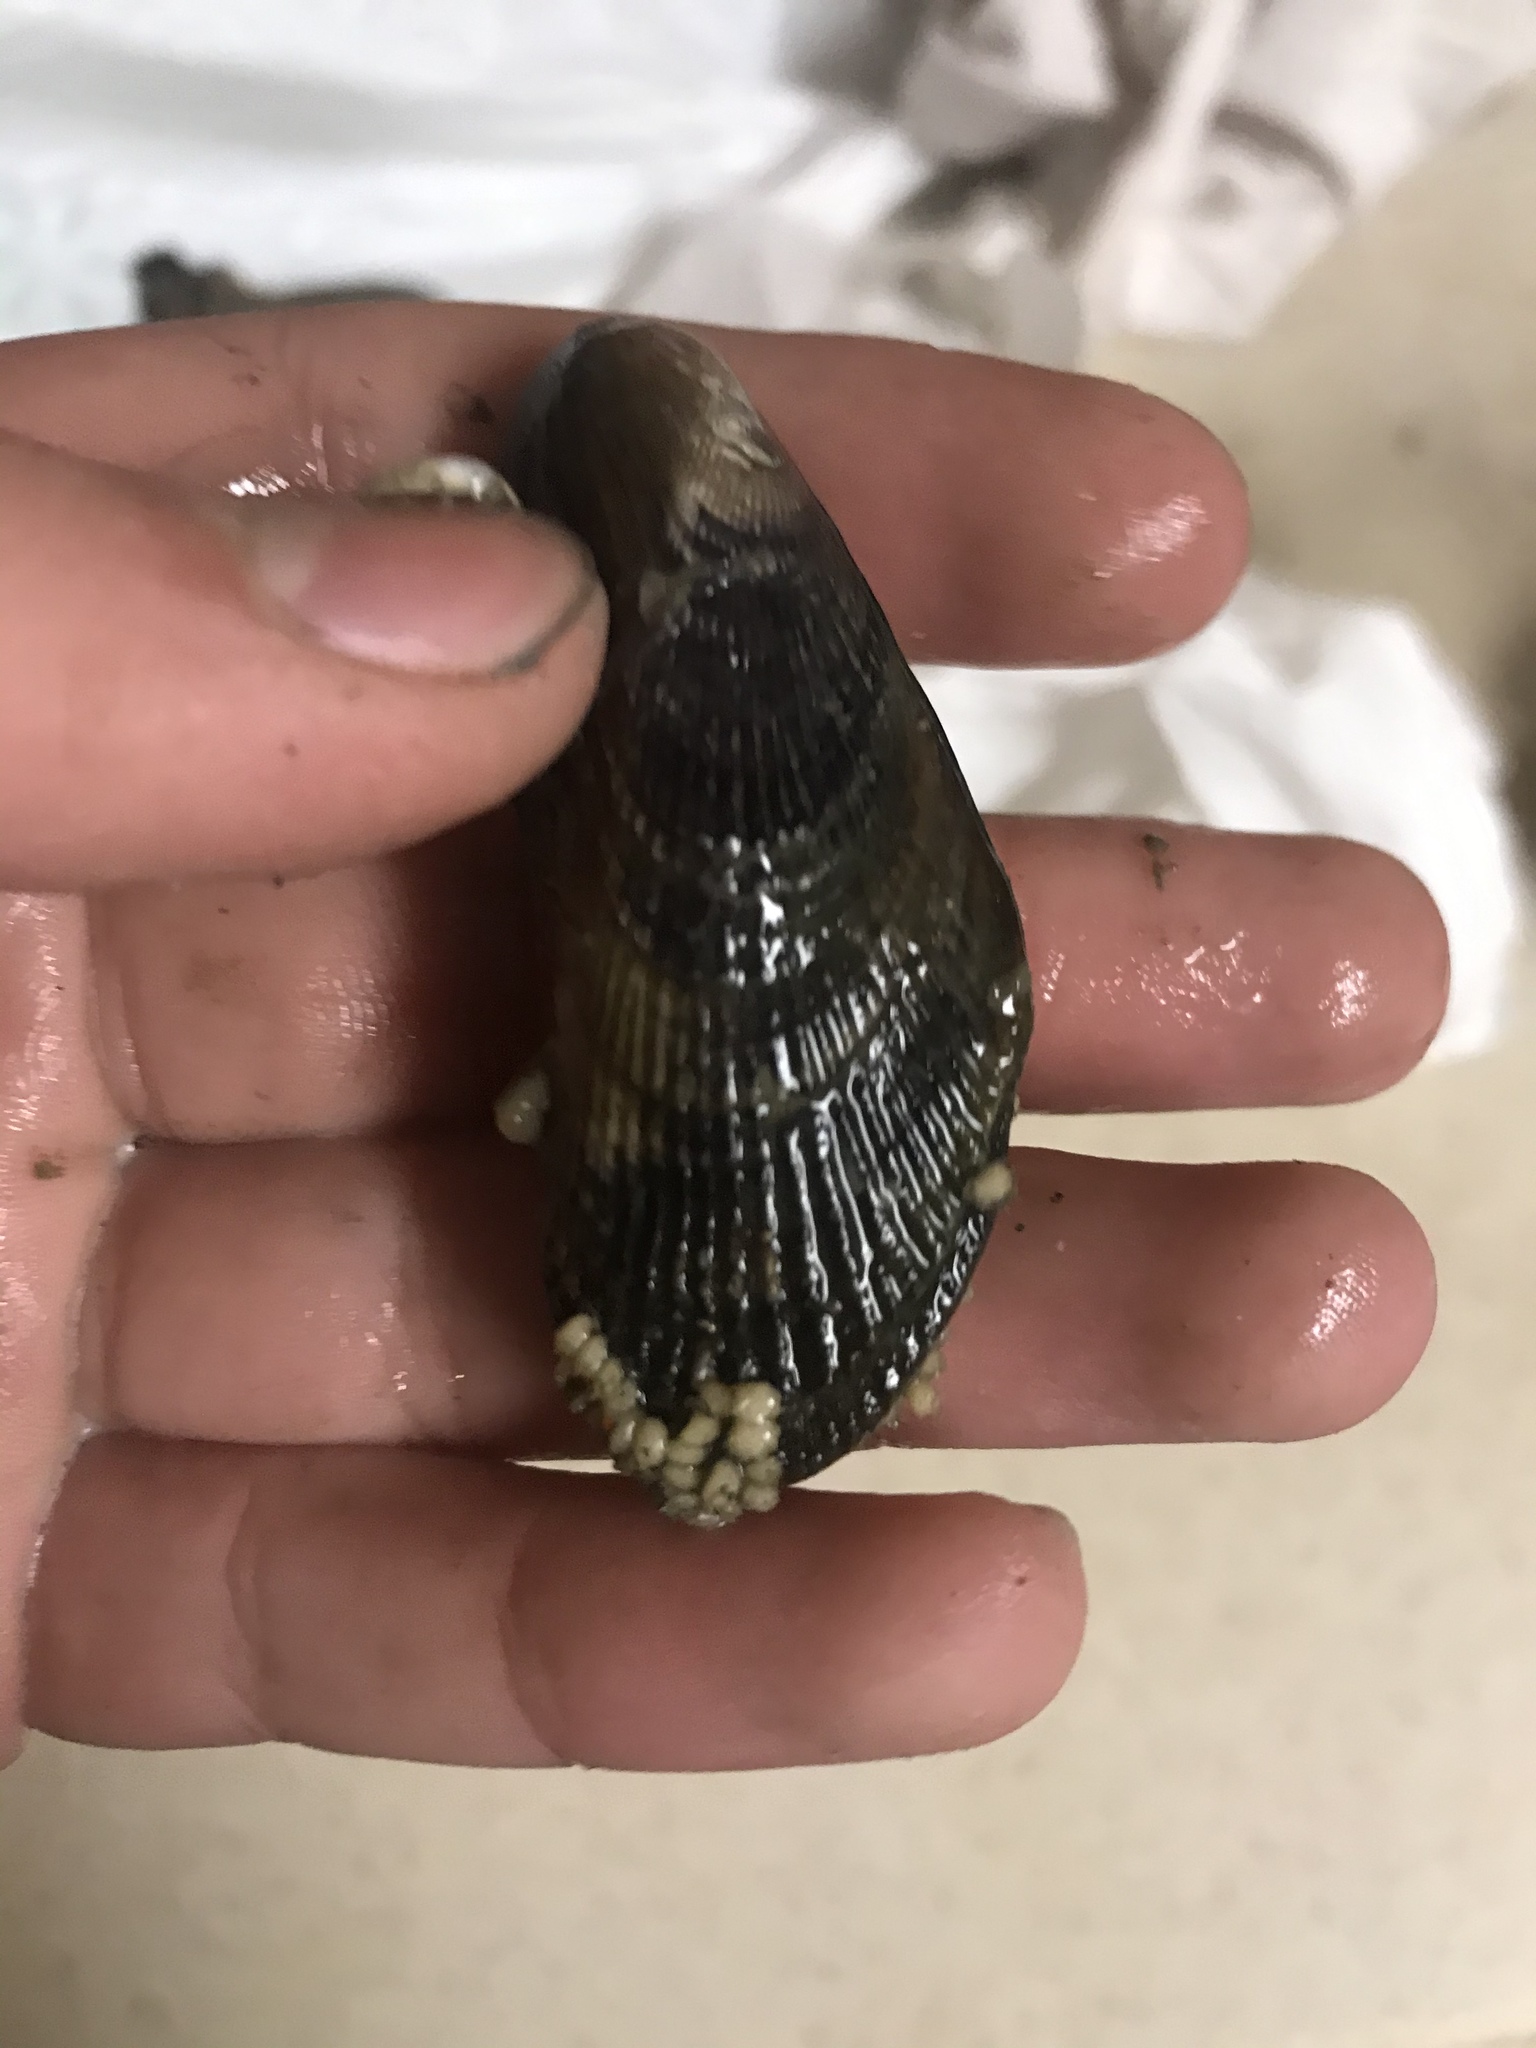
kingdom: Animalia
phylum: Mollusca
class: Bivalvia
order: Mytilida
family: Mytilidae
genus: Geukensia
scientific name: Geukensia demissa
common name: Ribbed mussel
